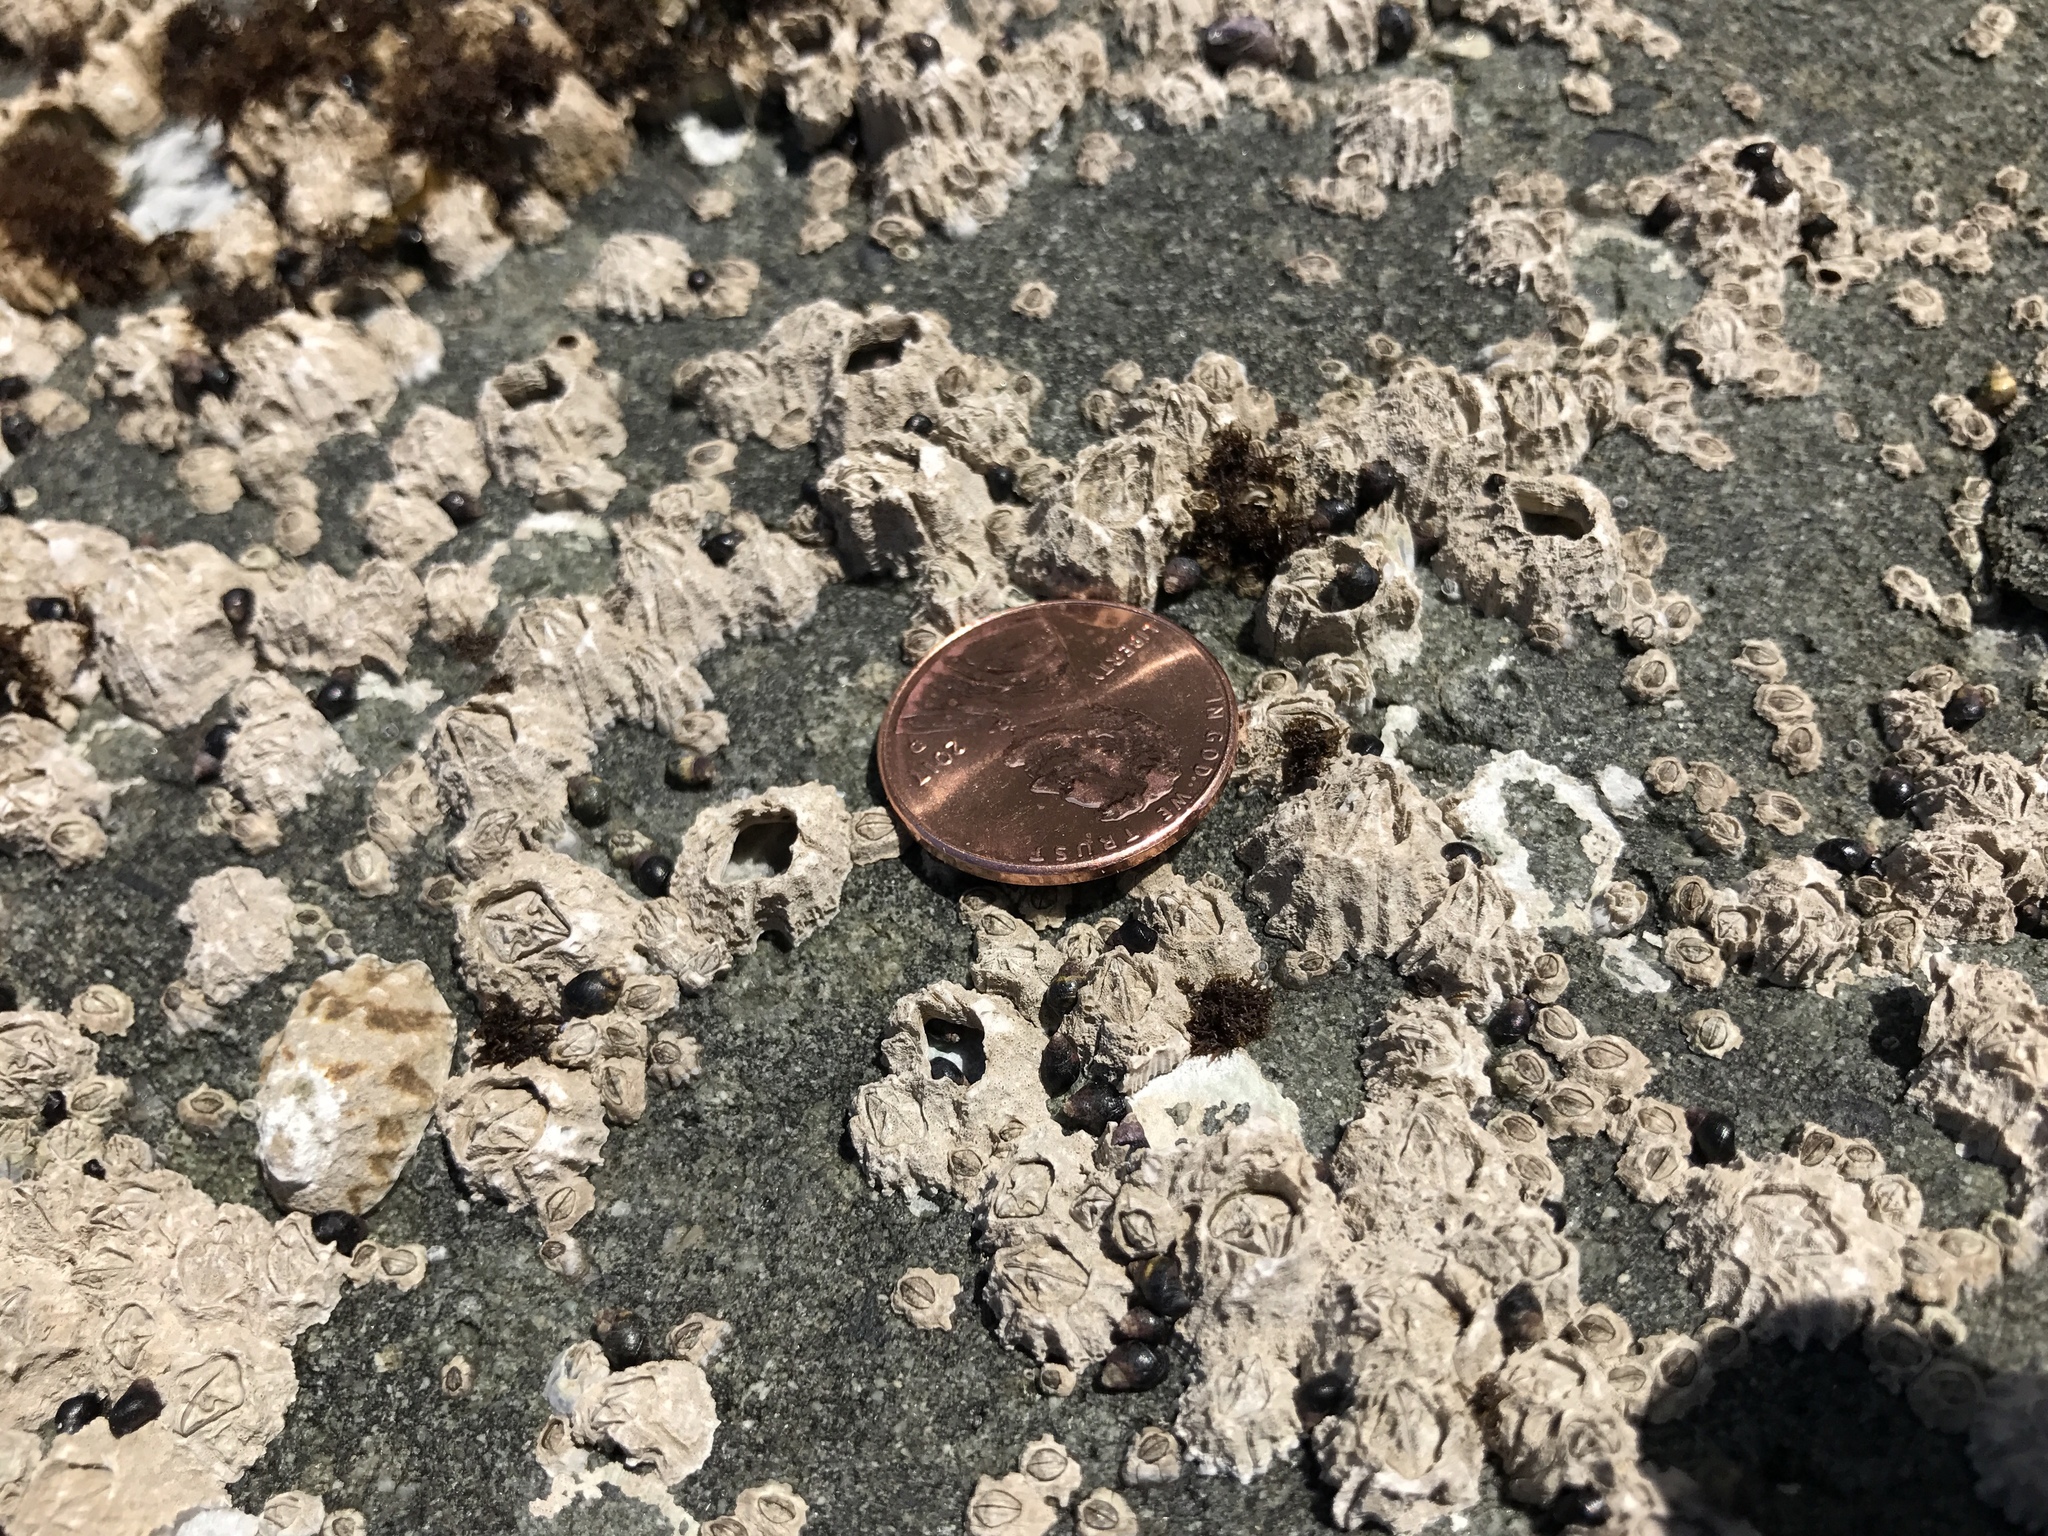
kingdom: Animalia
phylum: Arthropoda
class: Maxillopoda
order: Sessilia
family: Balanidae
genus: Balanus
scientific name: Balanus glandula
